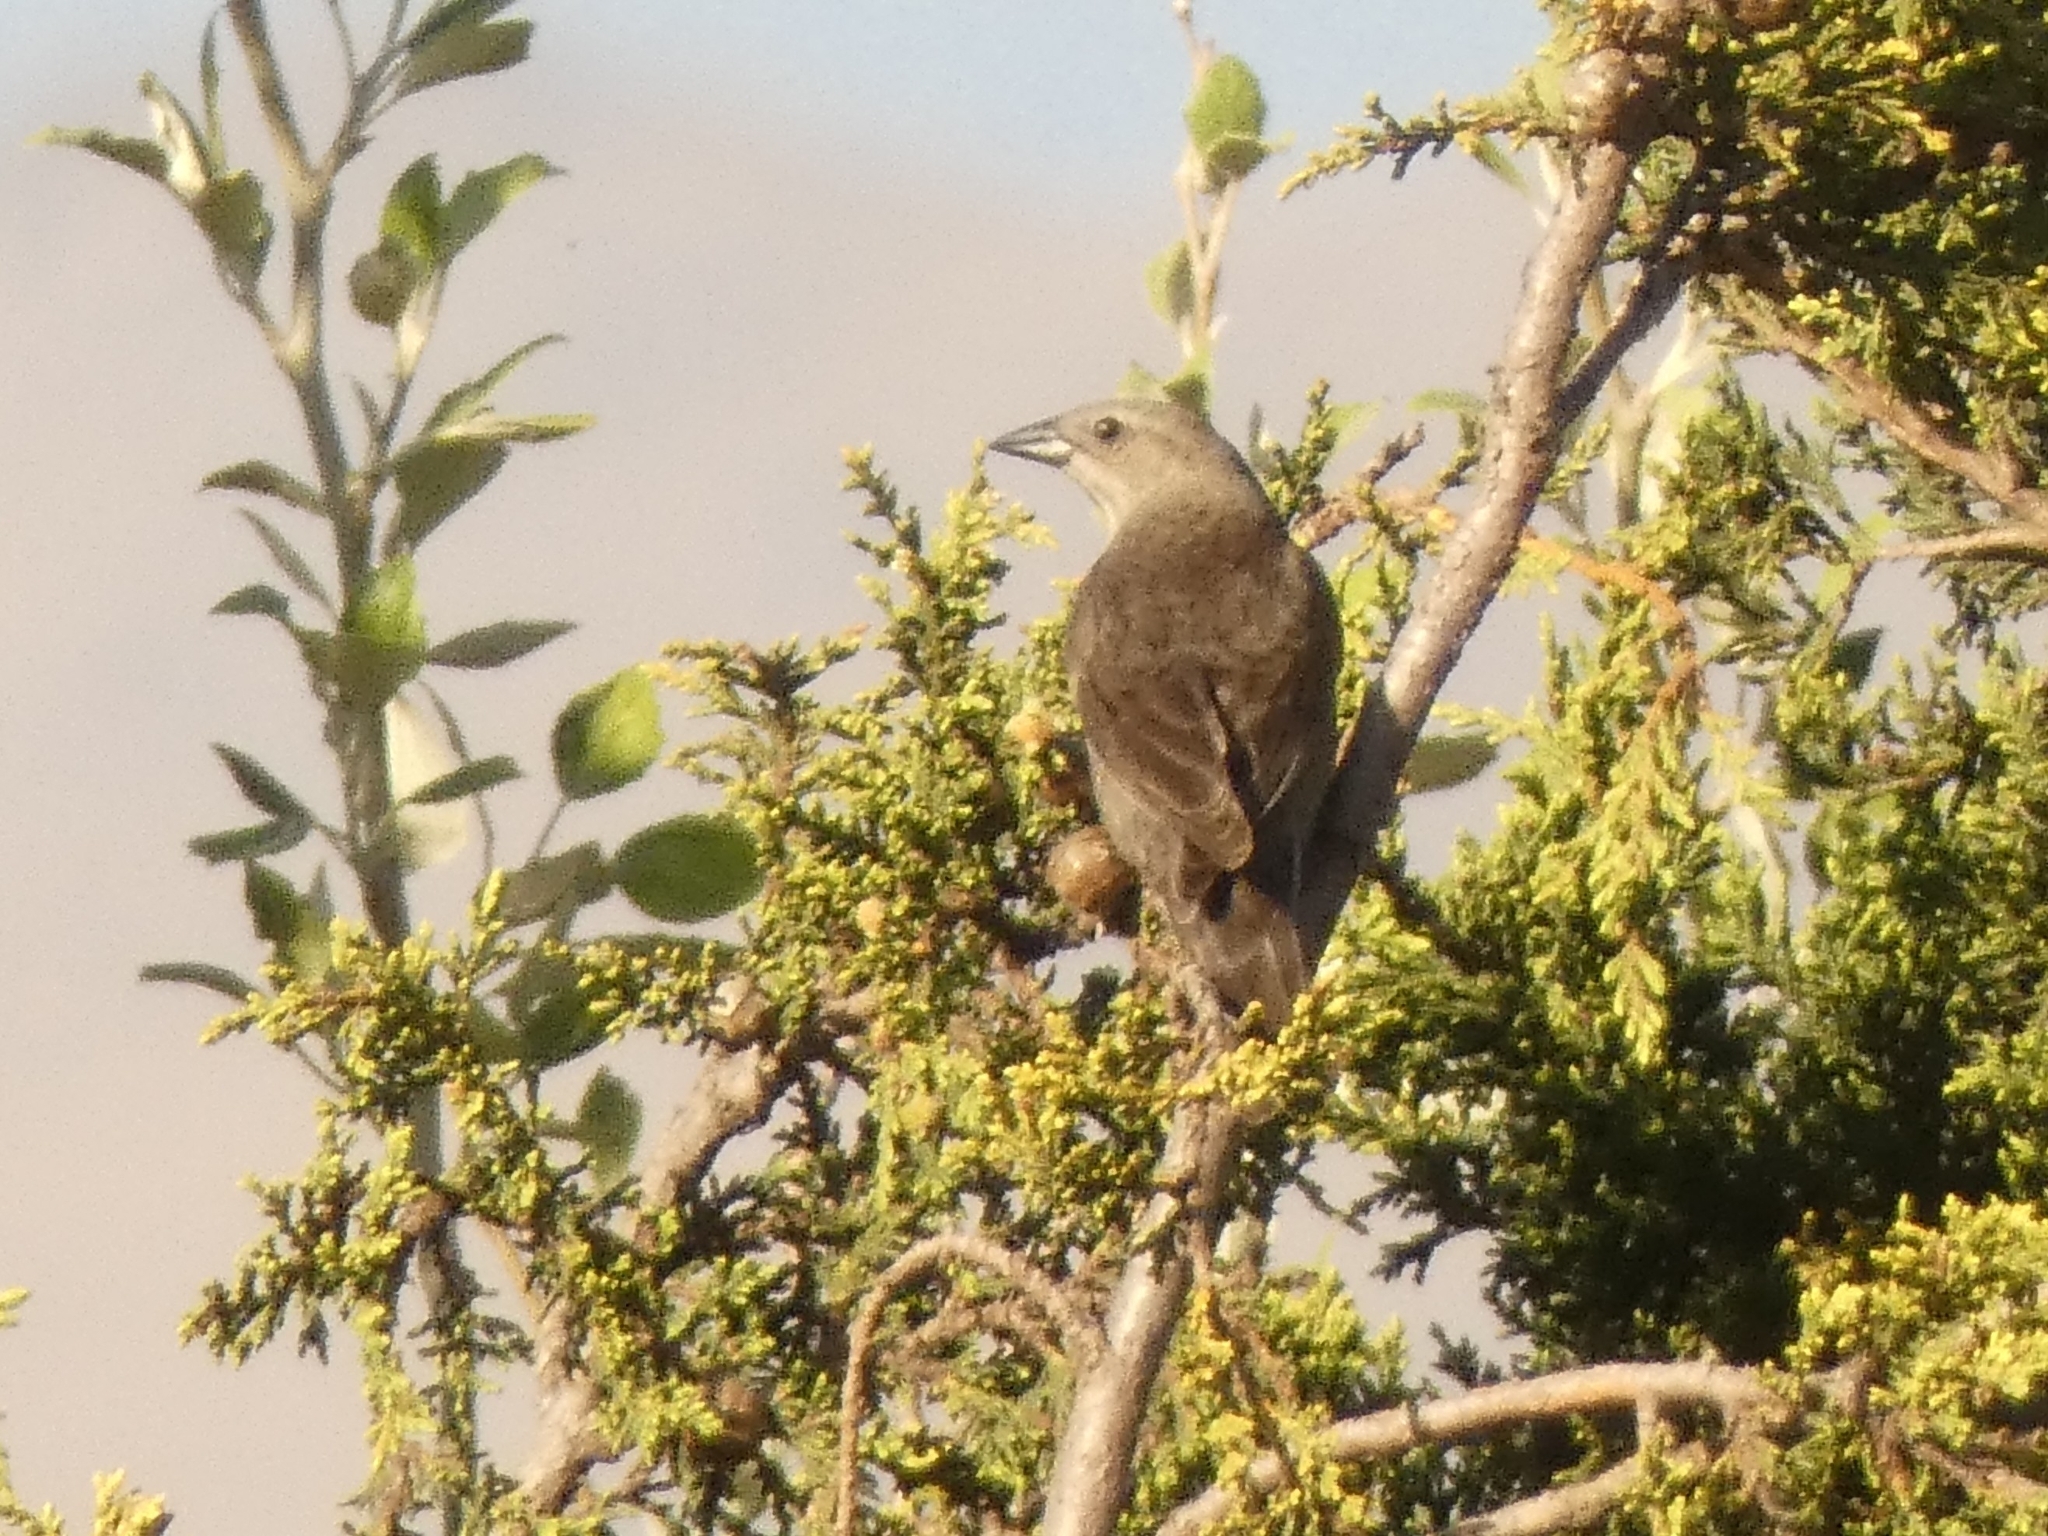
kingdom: Animalia
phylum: Chordata
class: Aves
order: Passeriformes
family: Icteridae
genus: Molothrus
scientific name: Molothrus bonariensis
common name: Shiny cowbird
